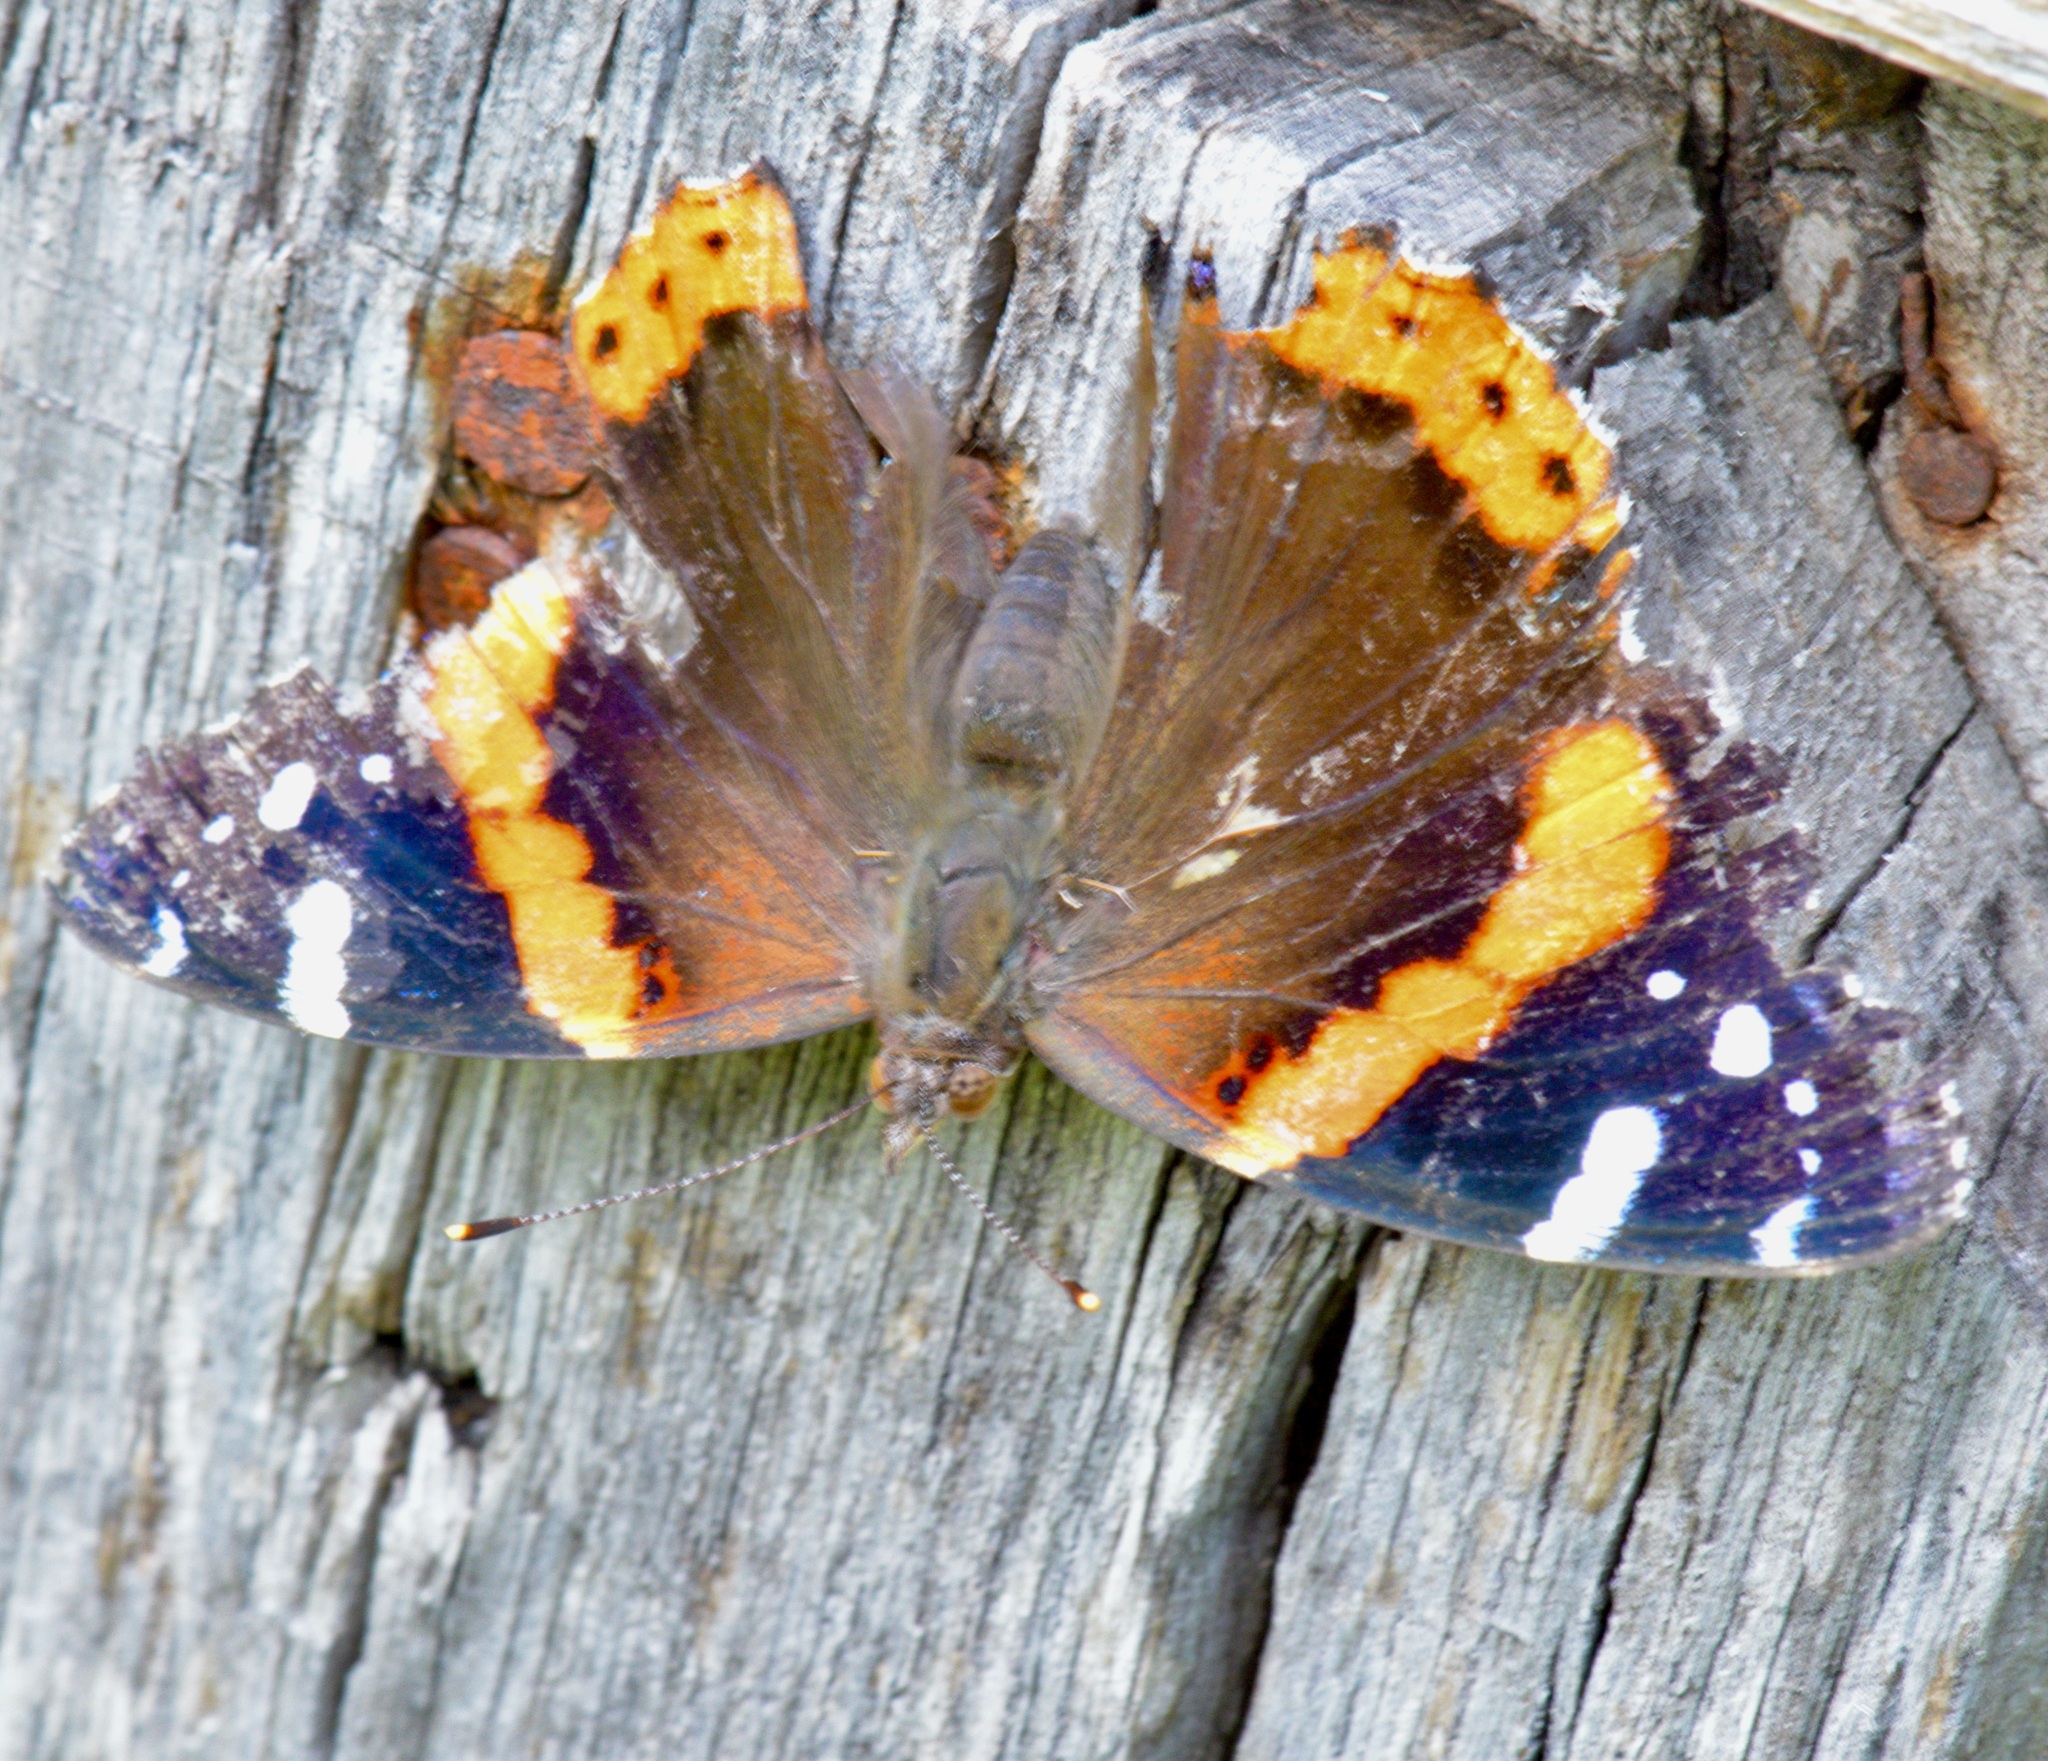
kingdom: Animalia
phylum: Arthropoda
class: Insecta
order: Lepidoptera
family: Nymphalidae
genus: Vanessa
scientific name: Vanessa atalanta
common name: Red admiral
